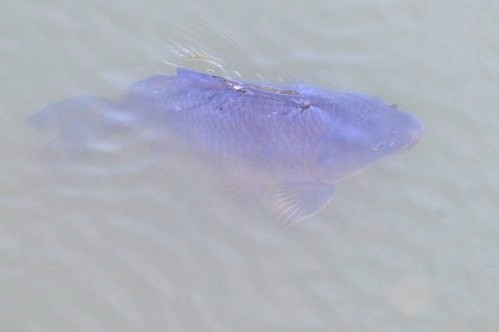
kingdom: Animalia
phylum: Chordata
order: Cypriniformes
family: Cyprinidae
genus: Cyprinus
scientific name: Cyprinus carpio
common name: Common carp
